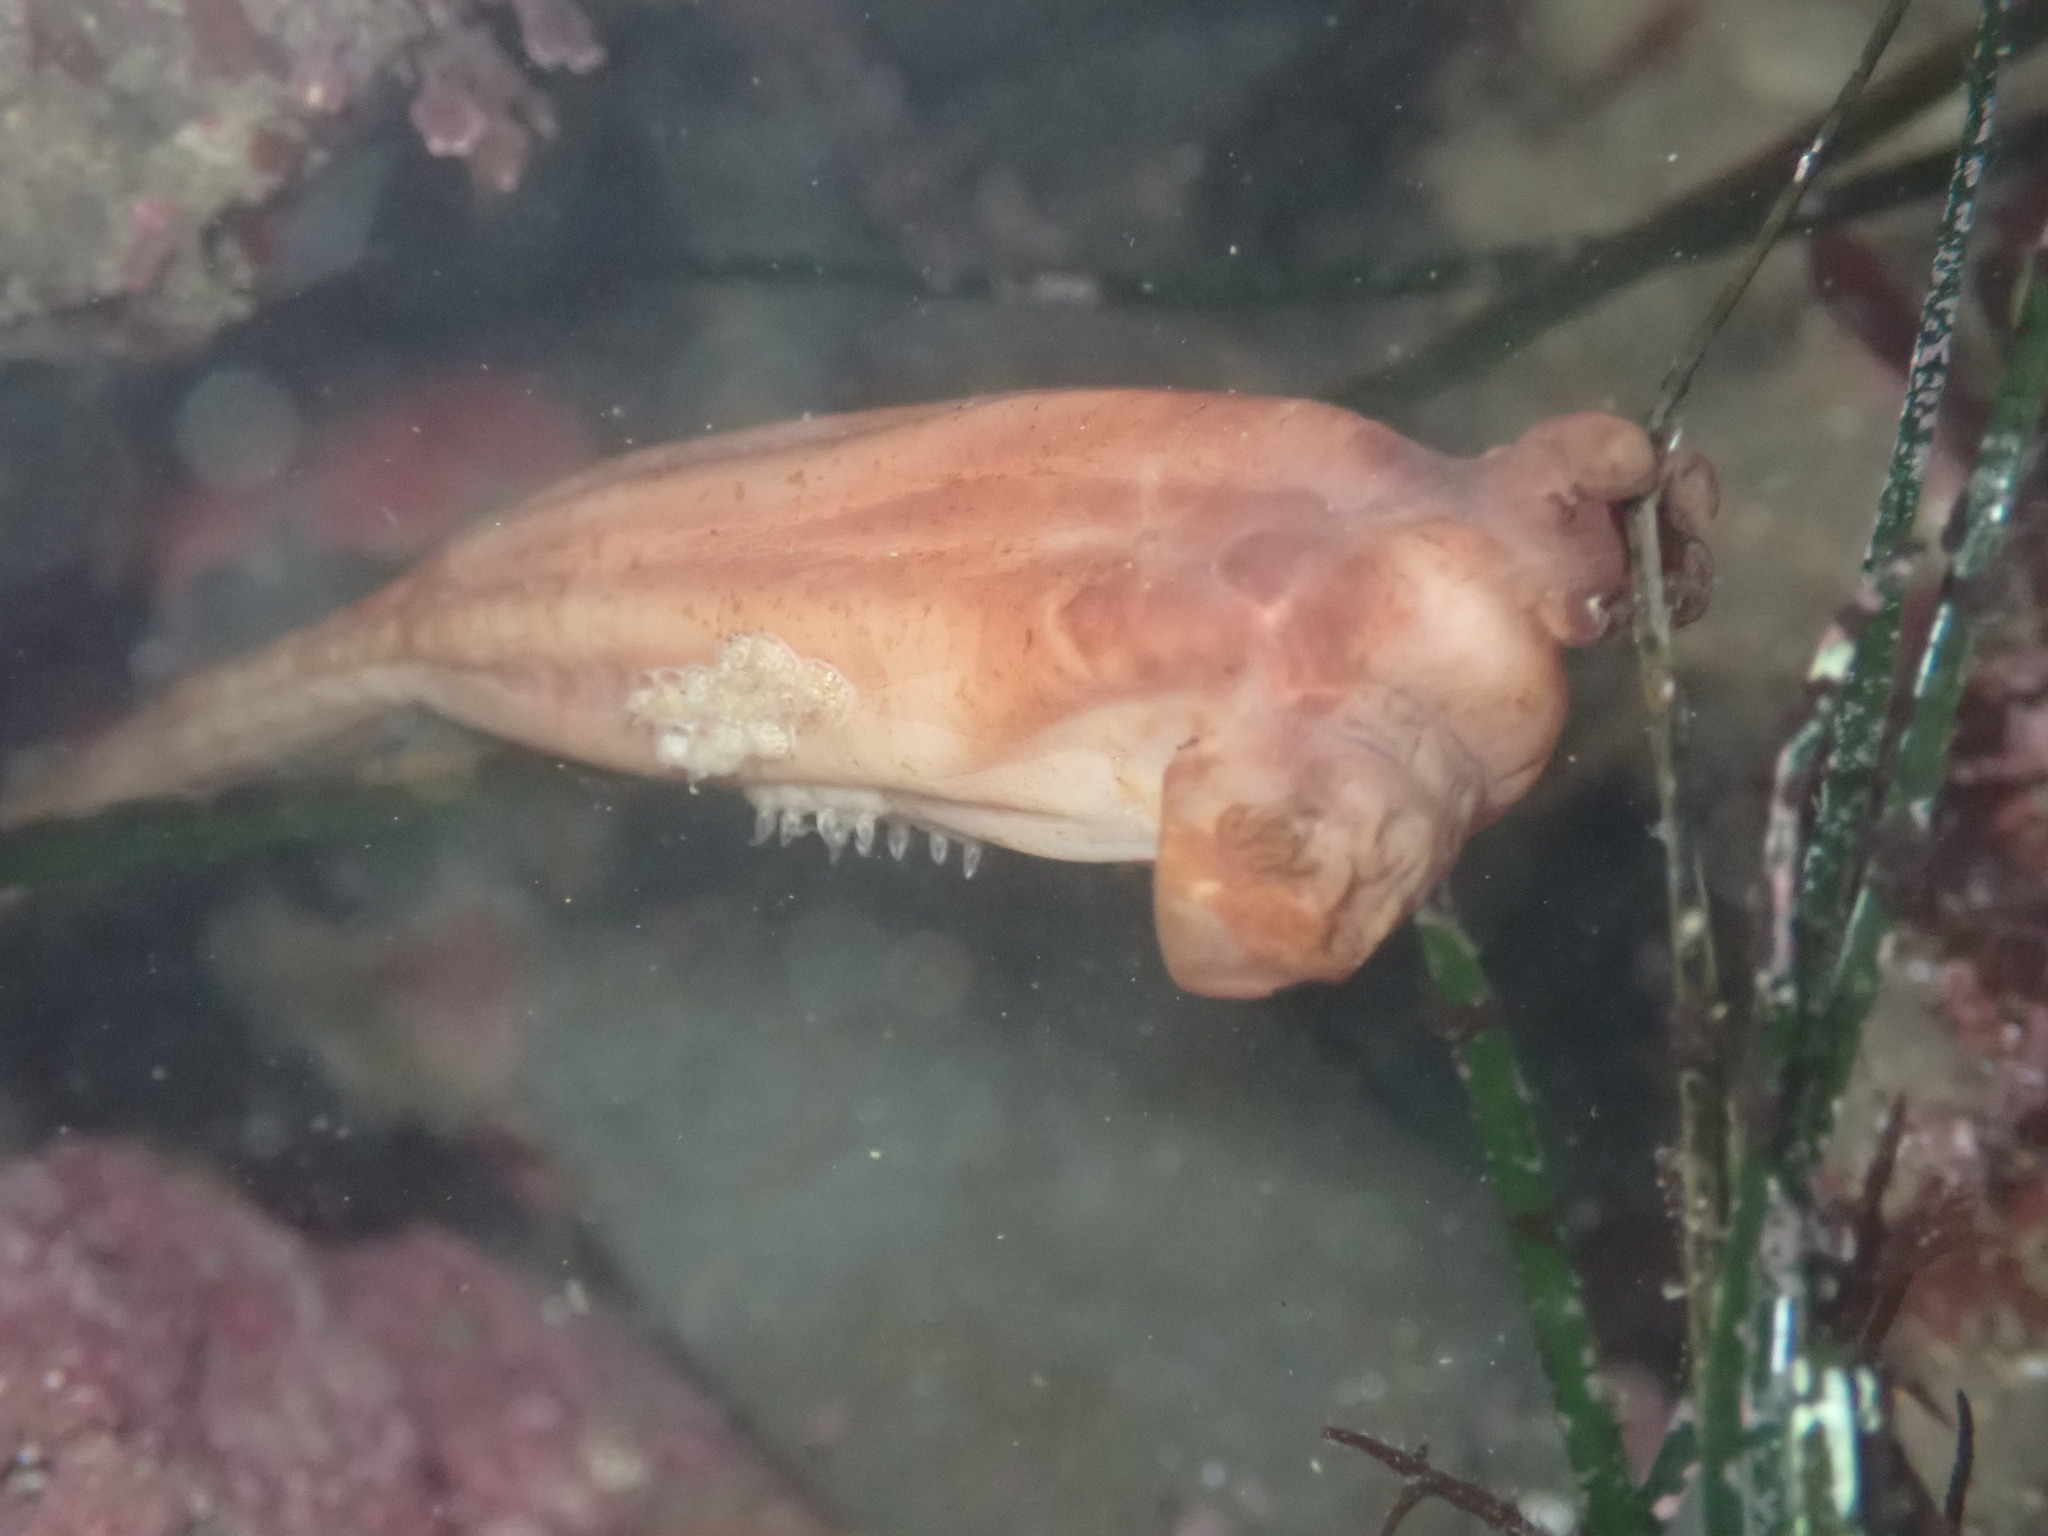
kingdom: Animalia
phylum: Chordata
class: Ascidiacea
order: Stolidobranchia
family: Styelidae
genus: Styela
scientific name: Styela montereyensis
